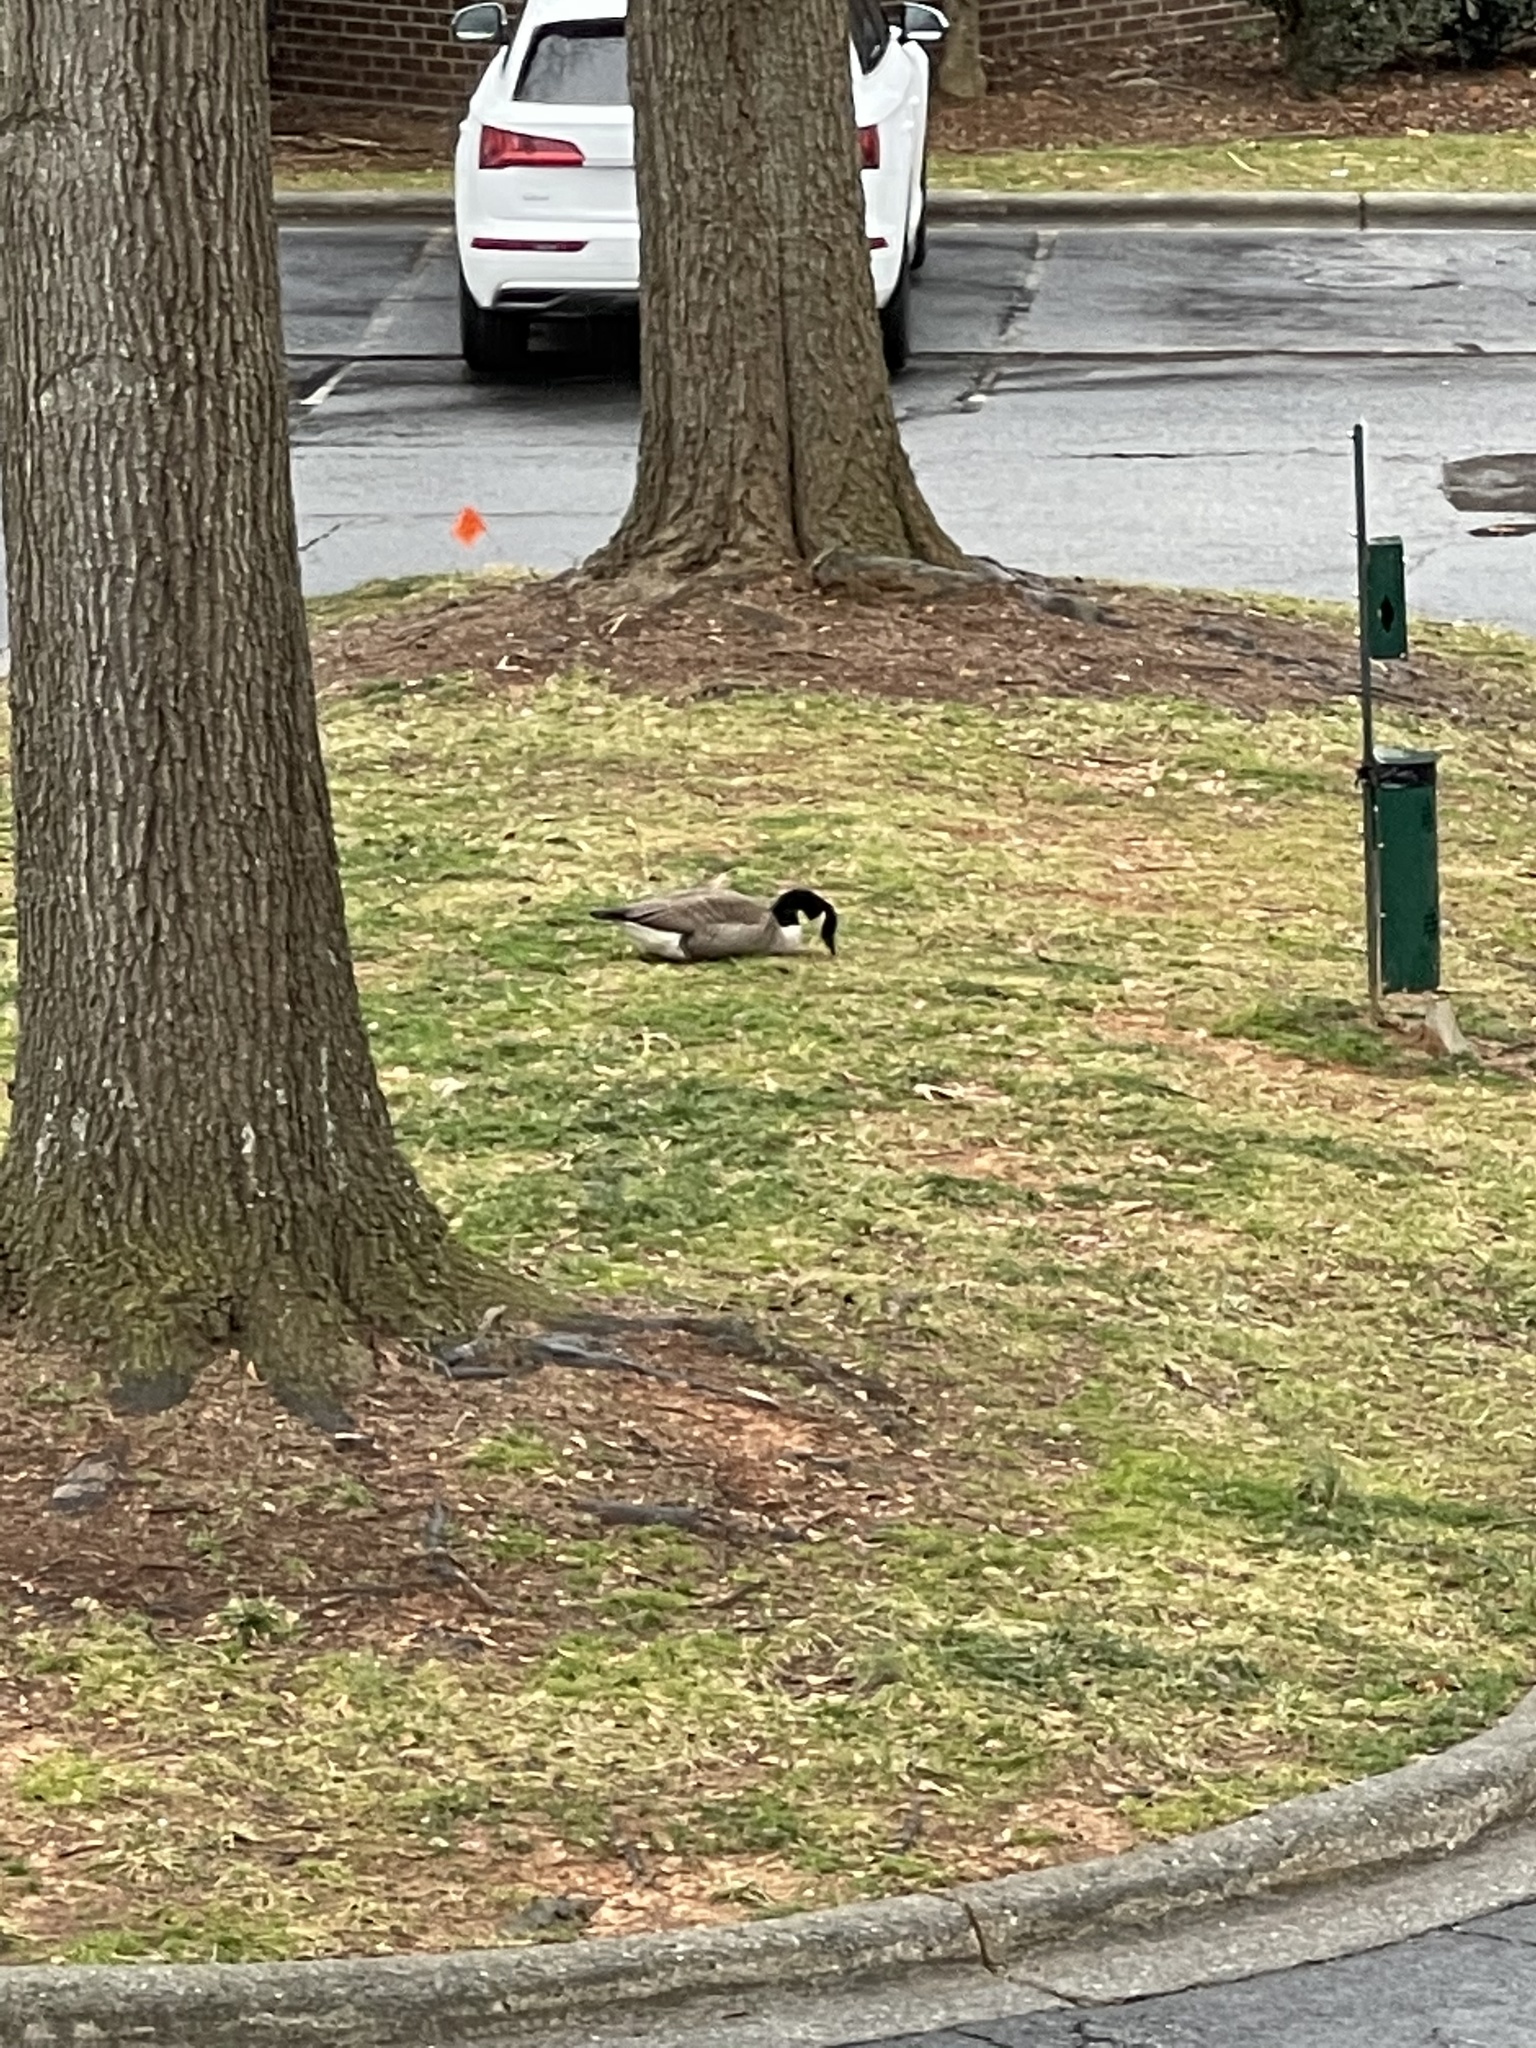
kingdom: Animalia
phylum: Chordata
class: Aves
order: Anseriformes
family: Anatidae
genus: Branta
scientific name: Branta canadensis
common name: Canada goose
